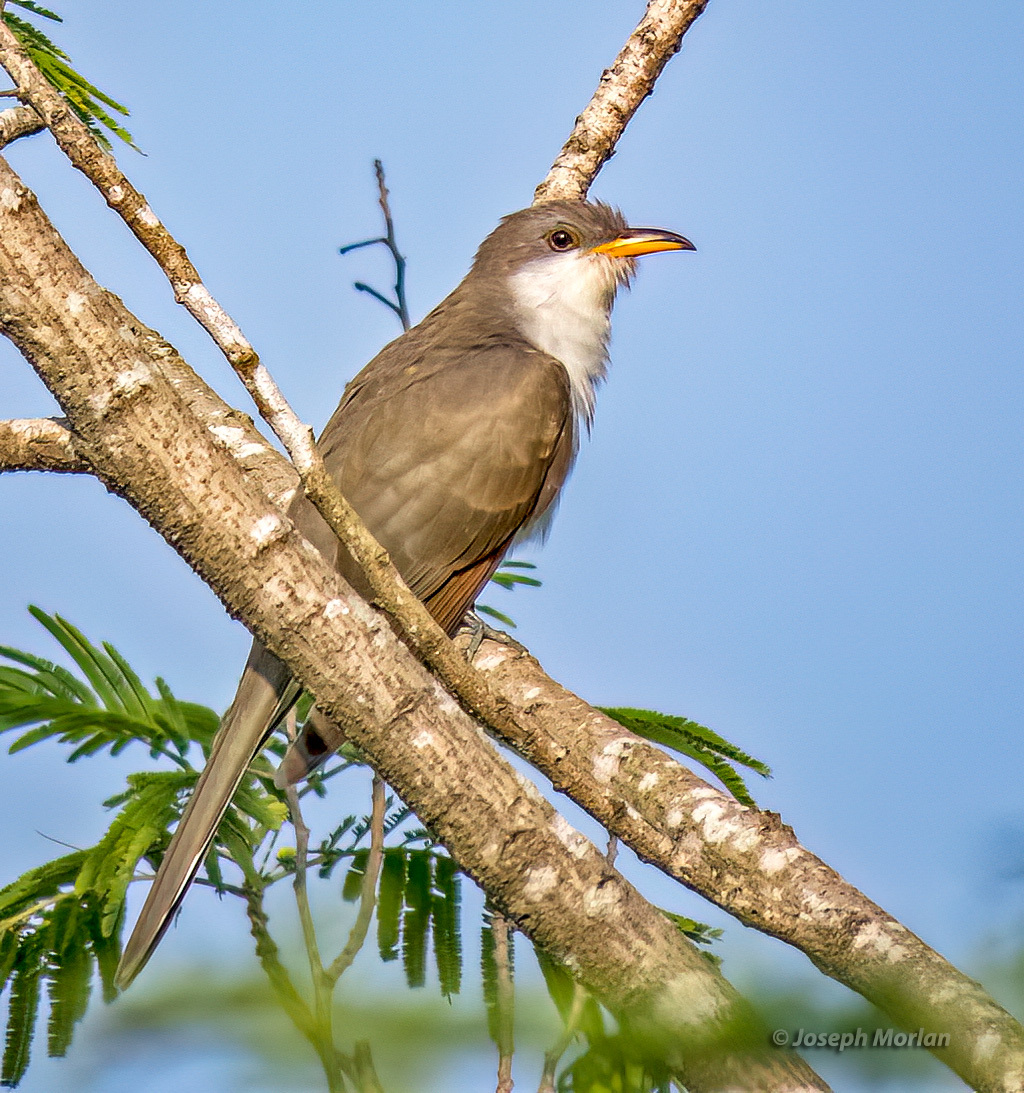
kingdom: Animalia
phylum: Chordata
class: Aves
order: Cuculiformes
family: Cuculidae
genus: Coccyzus
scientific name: Coccyzus americanus
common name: Yellow-billed cuckoo
